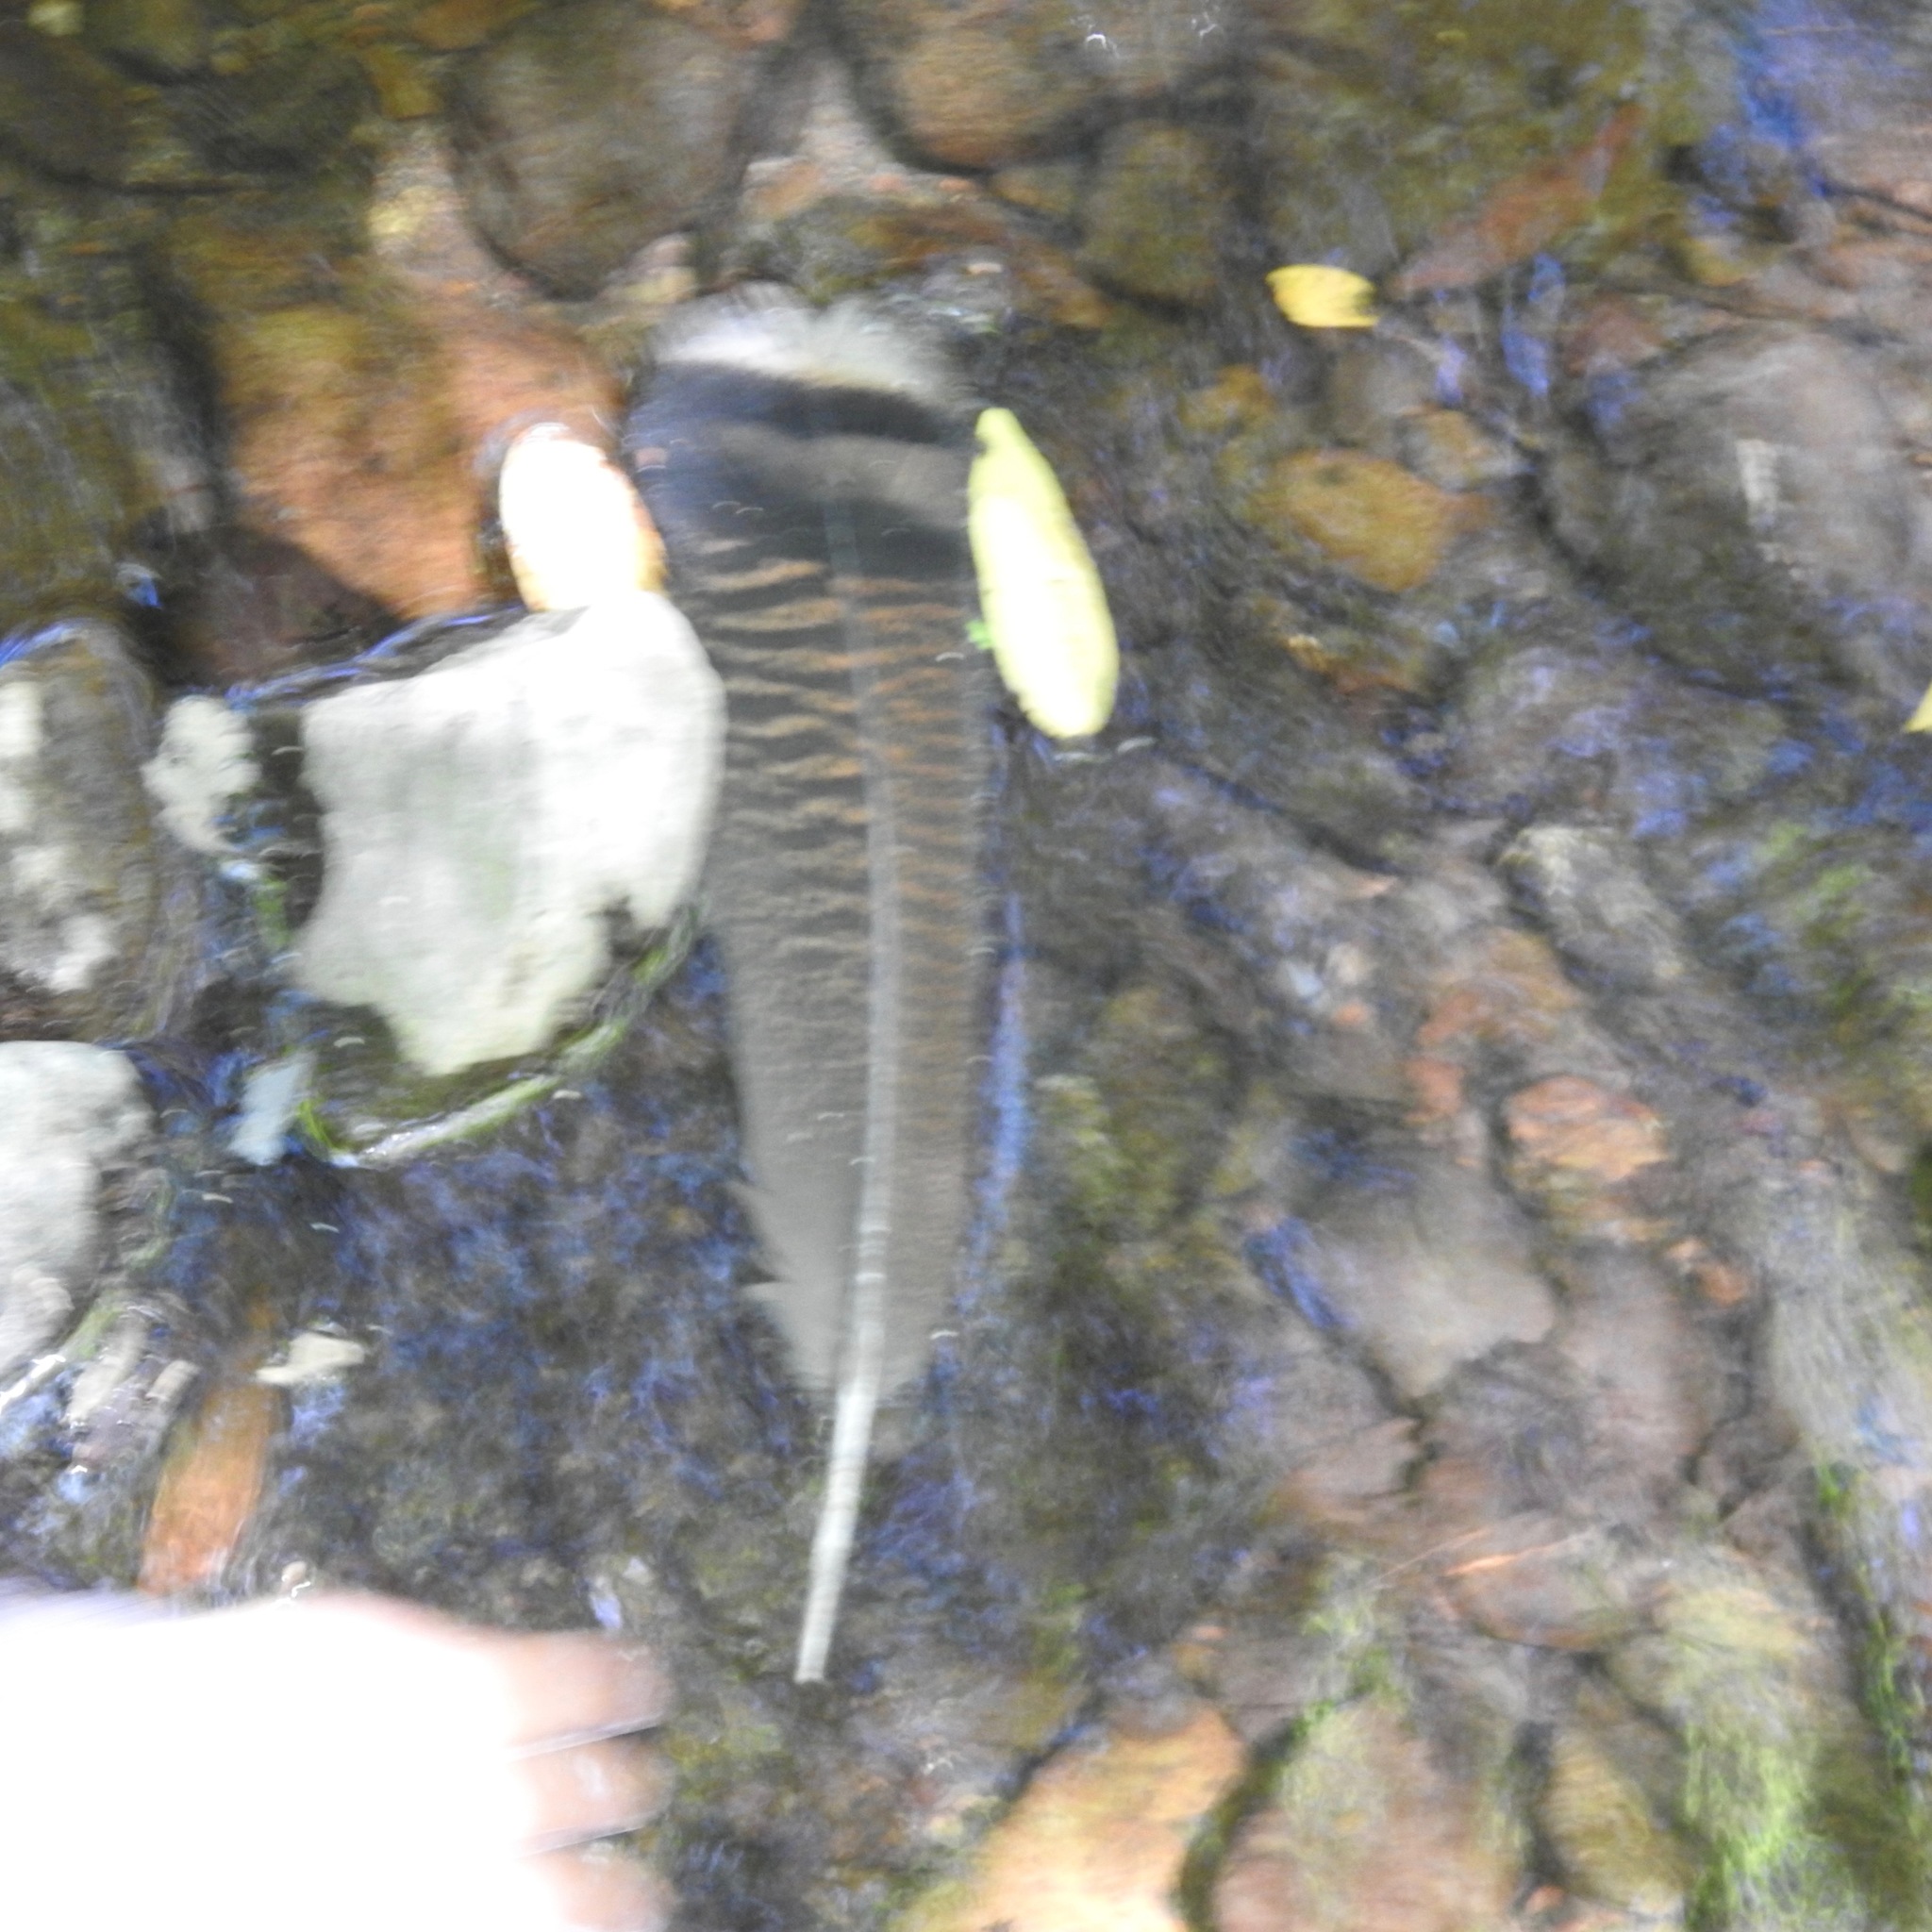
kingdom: Animalia
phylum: Chordata
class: Aves
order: Galliformes
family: Phasianidae
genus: Meleagris
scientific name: Meleagris gallopavo
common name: Wild turkey
